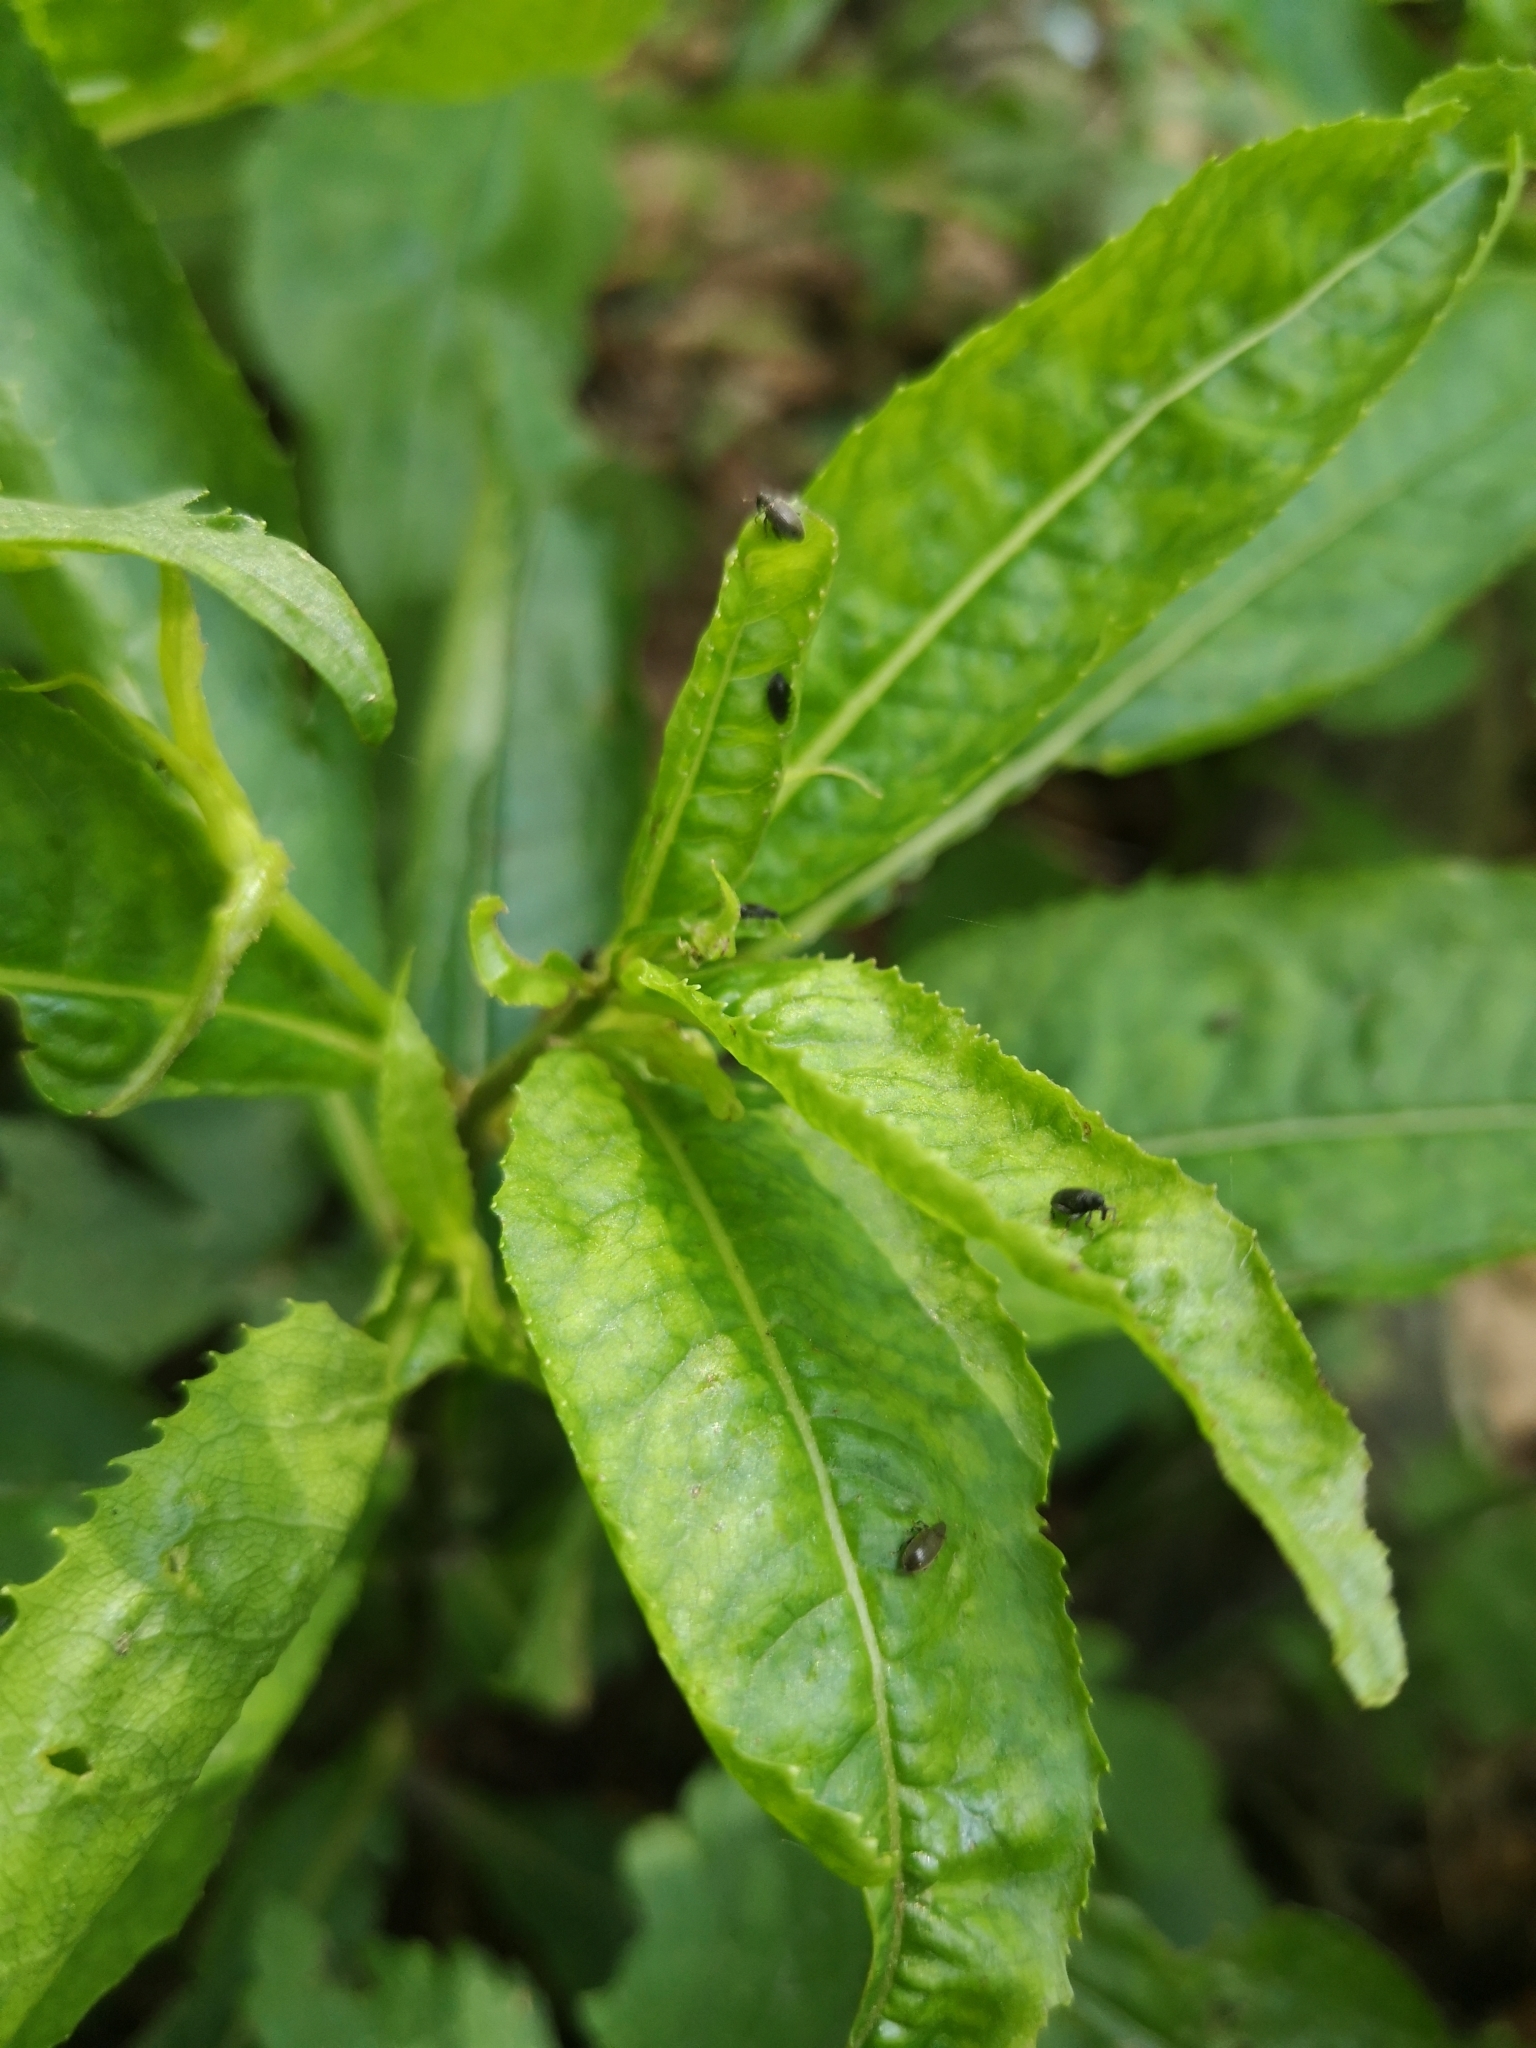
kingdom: Animalia
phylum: Arthropoda
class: Insecta
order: Coleoptera
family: Curculionidae
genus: Orchestes
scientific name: Orchestes fagi
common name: Beech leaf miner
